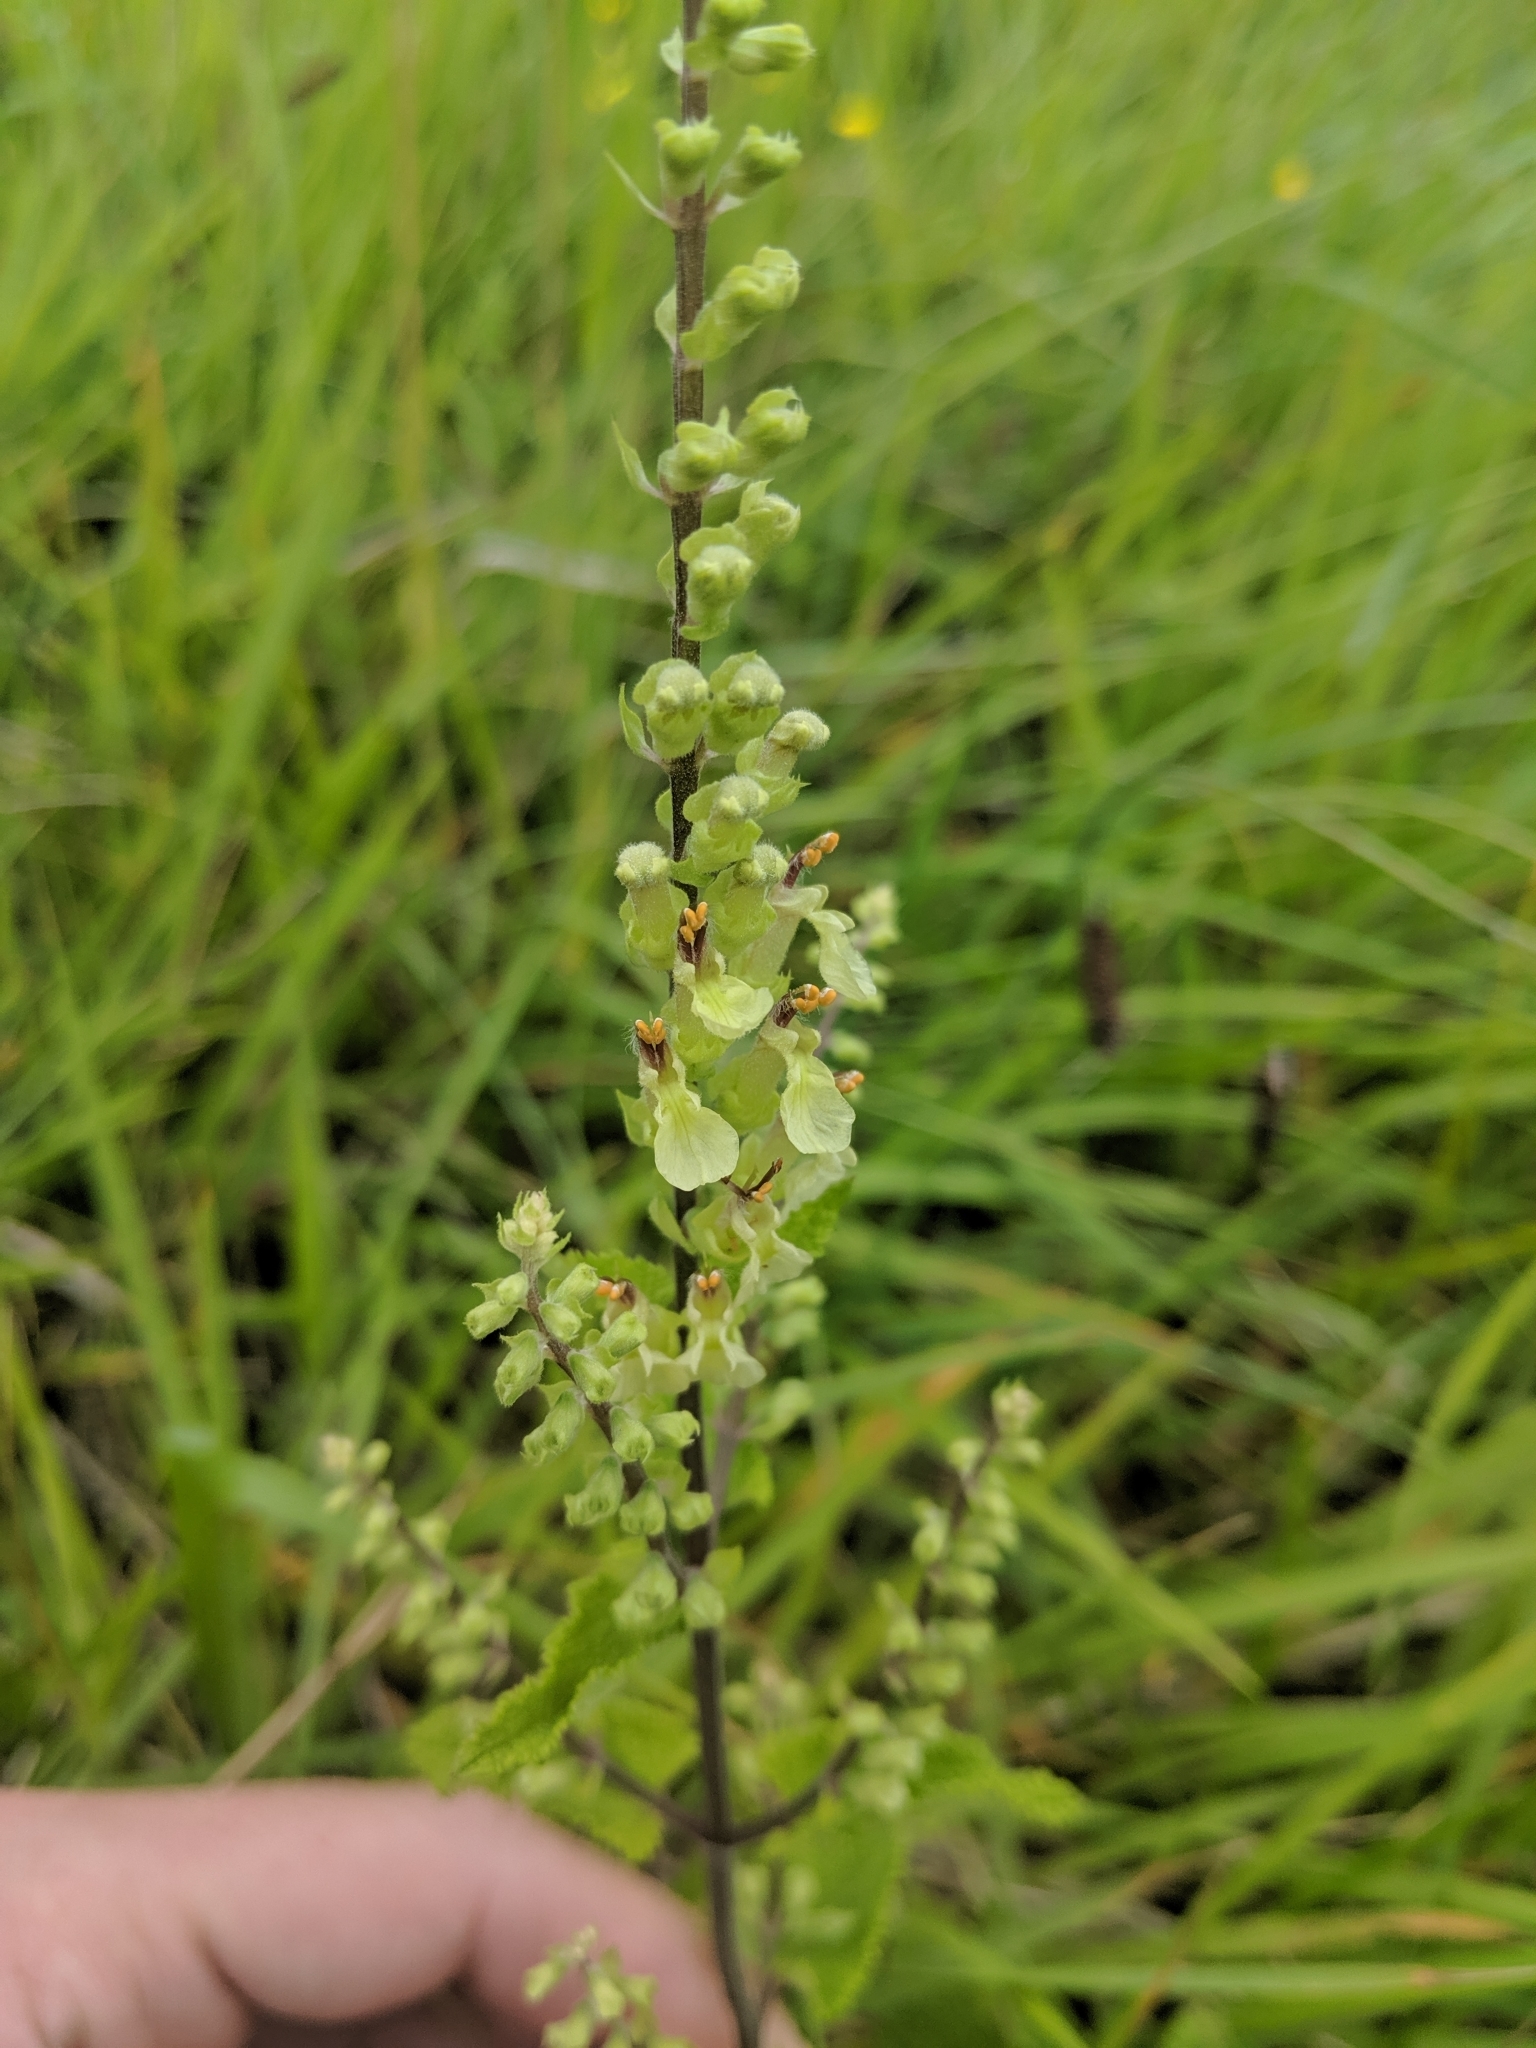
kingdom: Plantae
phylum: Tracheophyta
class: Magnoliopsida
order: Lamiales
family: Lamiaceae
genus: Teucrium
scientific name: Teucrium scorodonia
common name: Woodland germander
